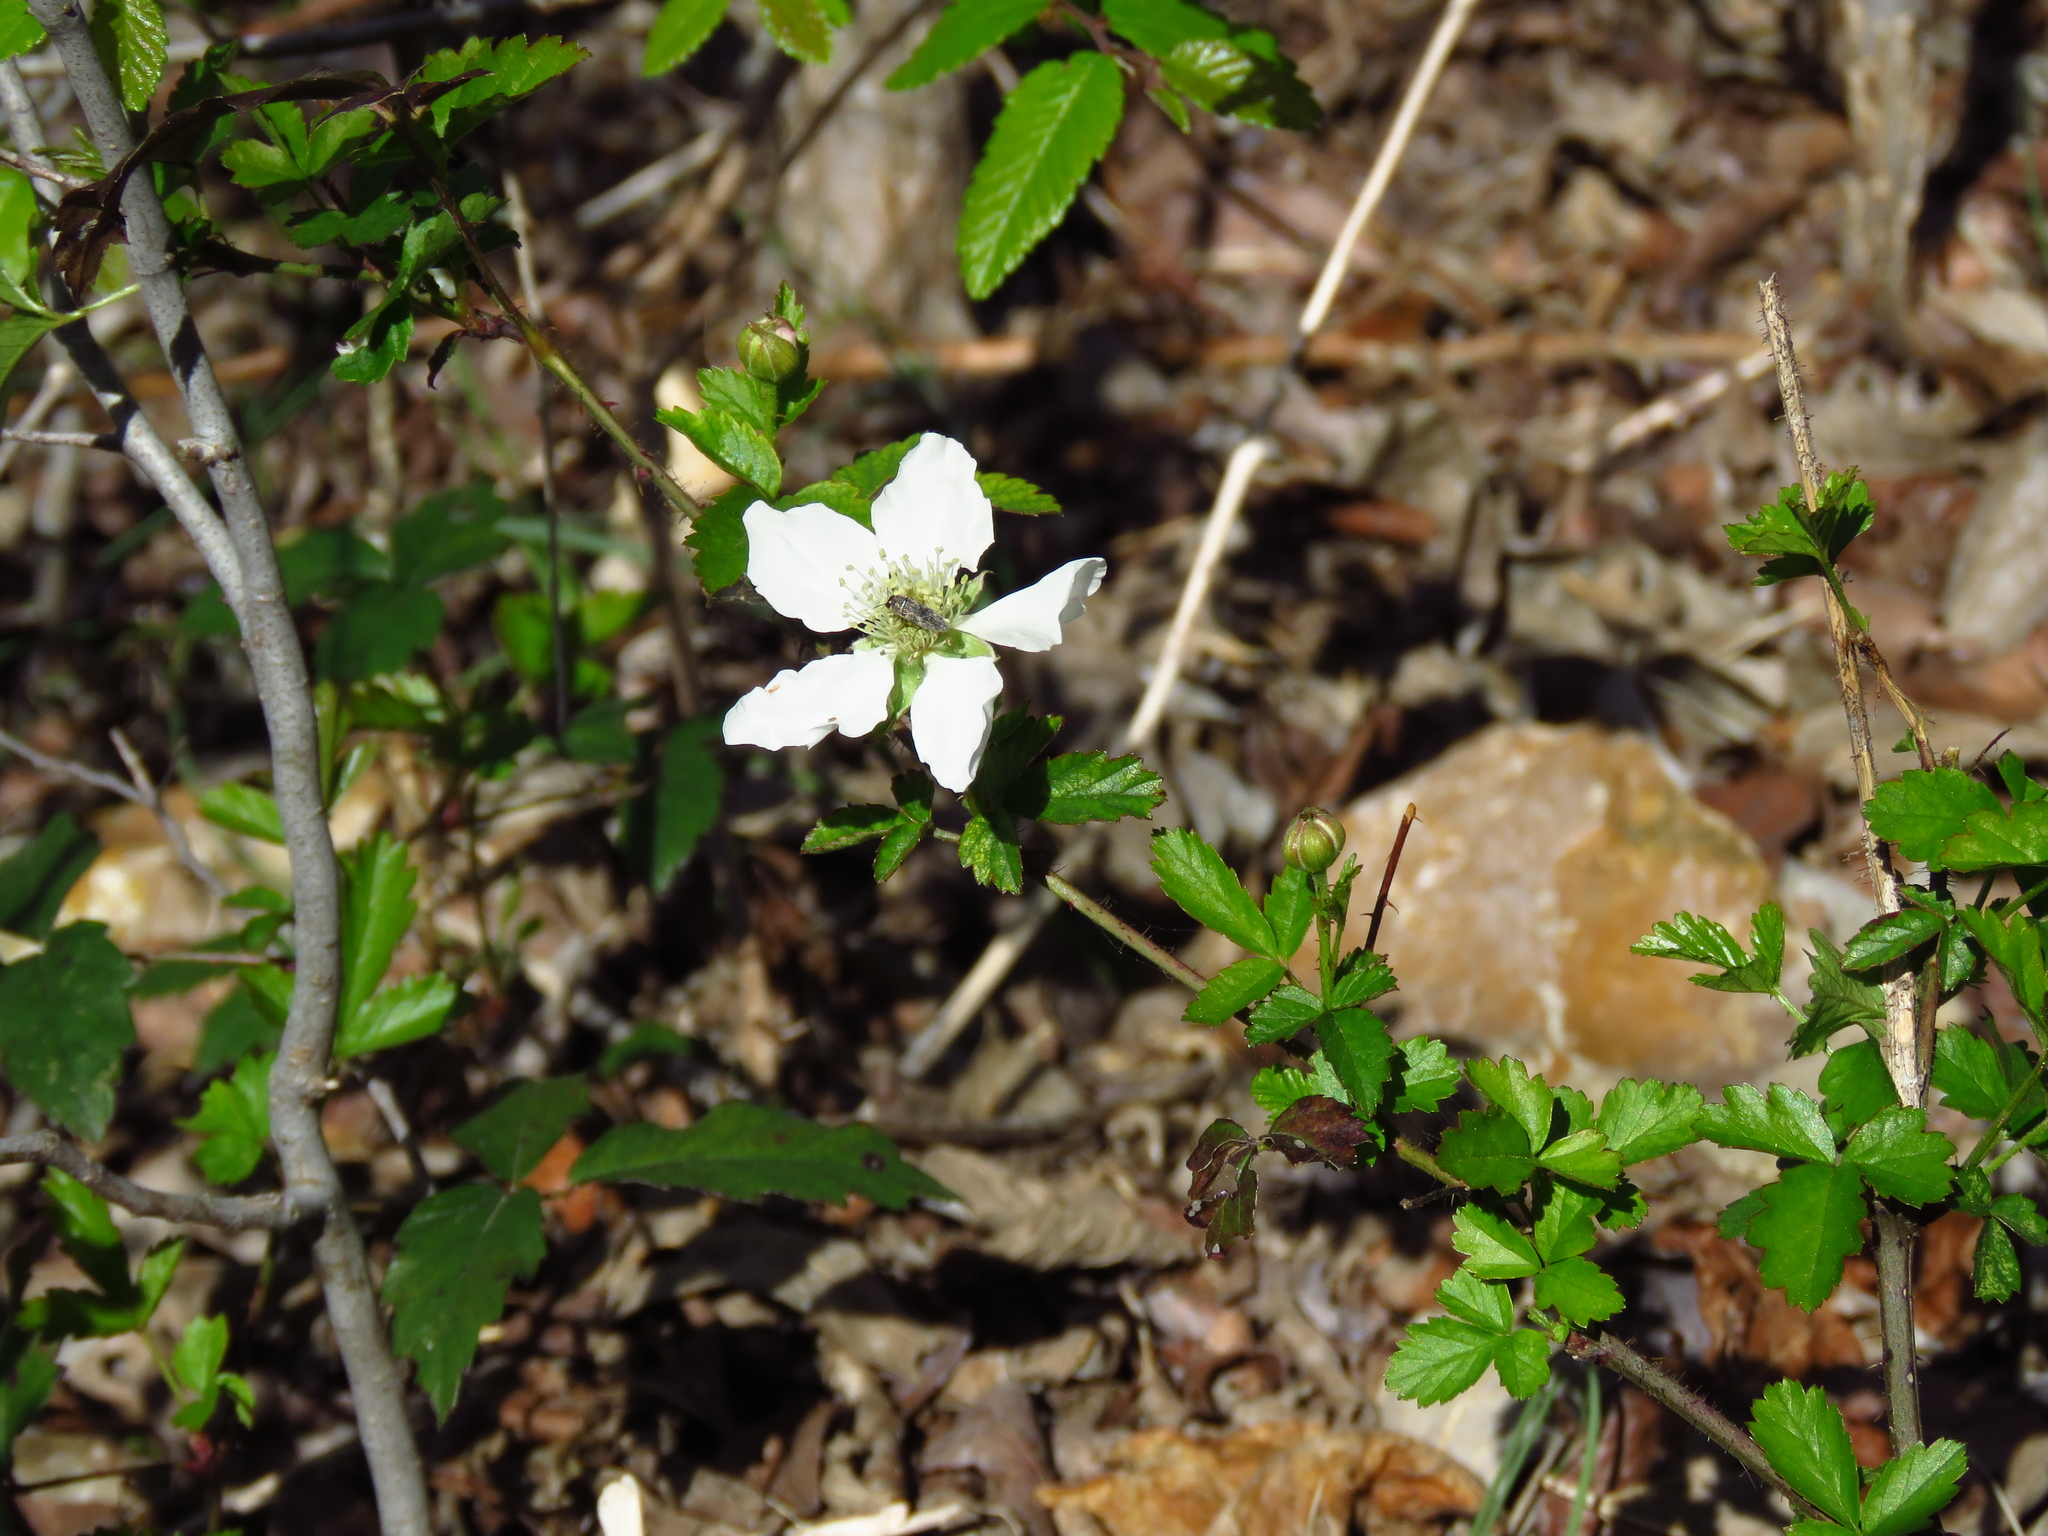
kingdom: Plantae
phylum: Tracheophyta
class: Magnoliopsida
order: Rosales
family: Rosaceae
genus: Rubus
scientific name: Rubus trivialis
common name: Southern dewberry
